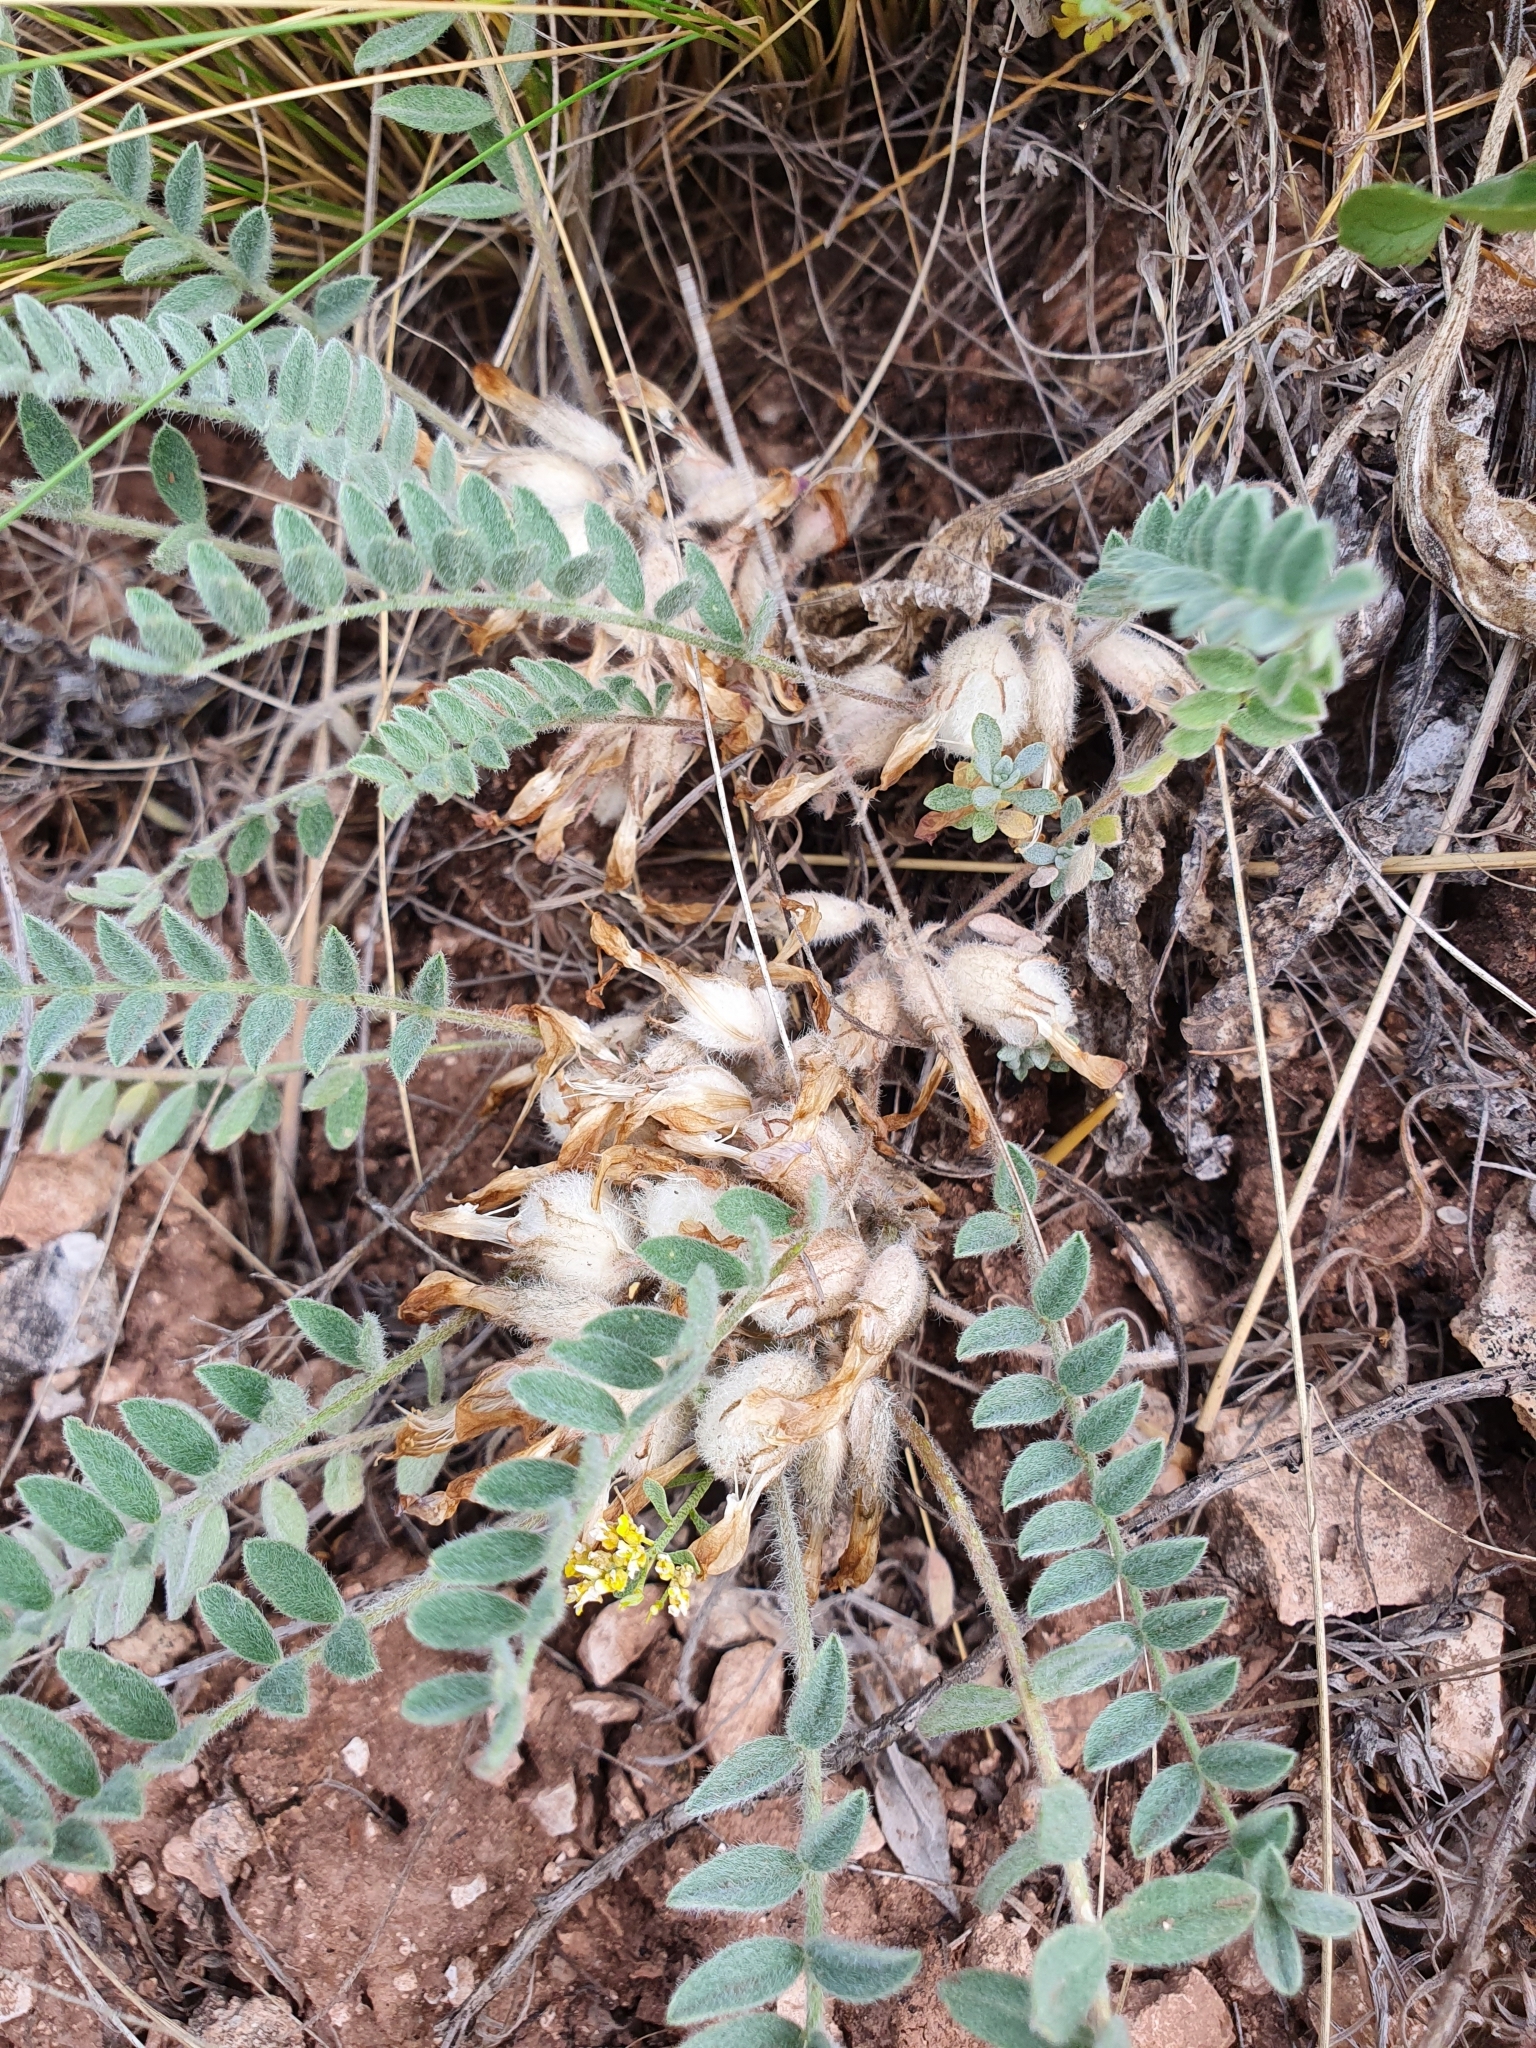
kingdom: Plantae
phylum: Tracheophyta
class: Magnoliopsida
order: Fabales
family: Fabaceae
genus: Astragalus
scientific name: Astragalus testiculatus
